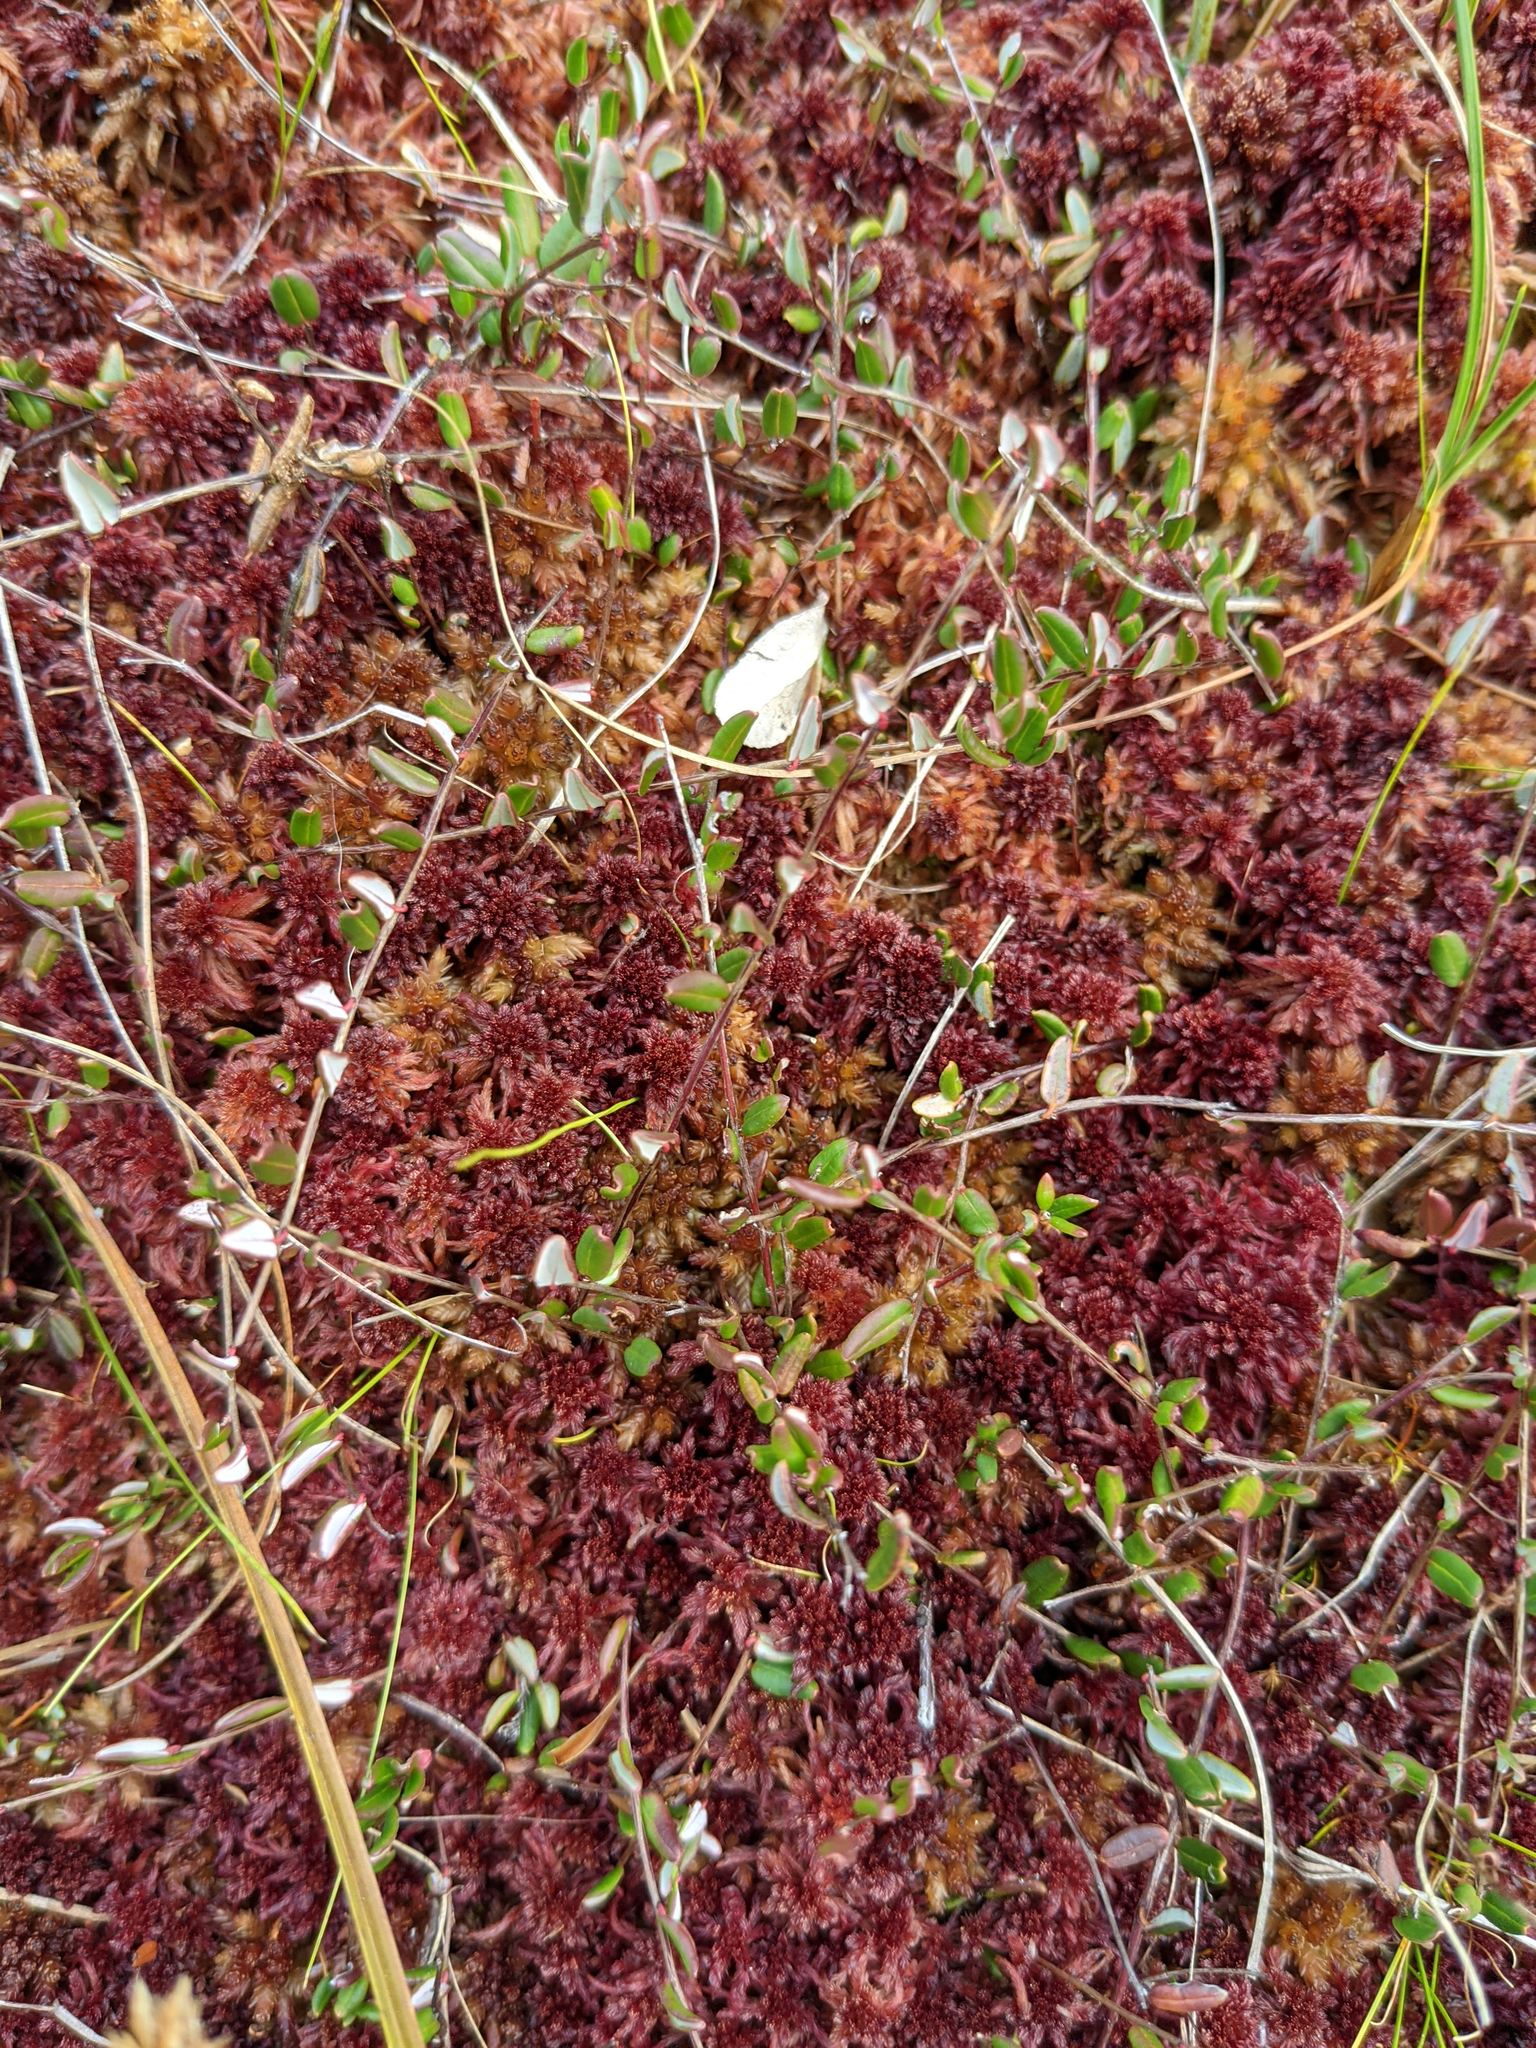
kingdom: Plantae
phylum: Tracheophyta
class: Magnoliopsida
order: Ericales
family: Ericaceae
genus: Vaccinium
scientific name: Vaccinium oxycoccos
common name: Cranberry
